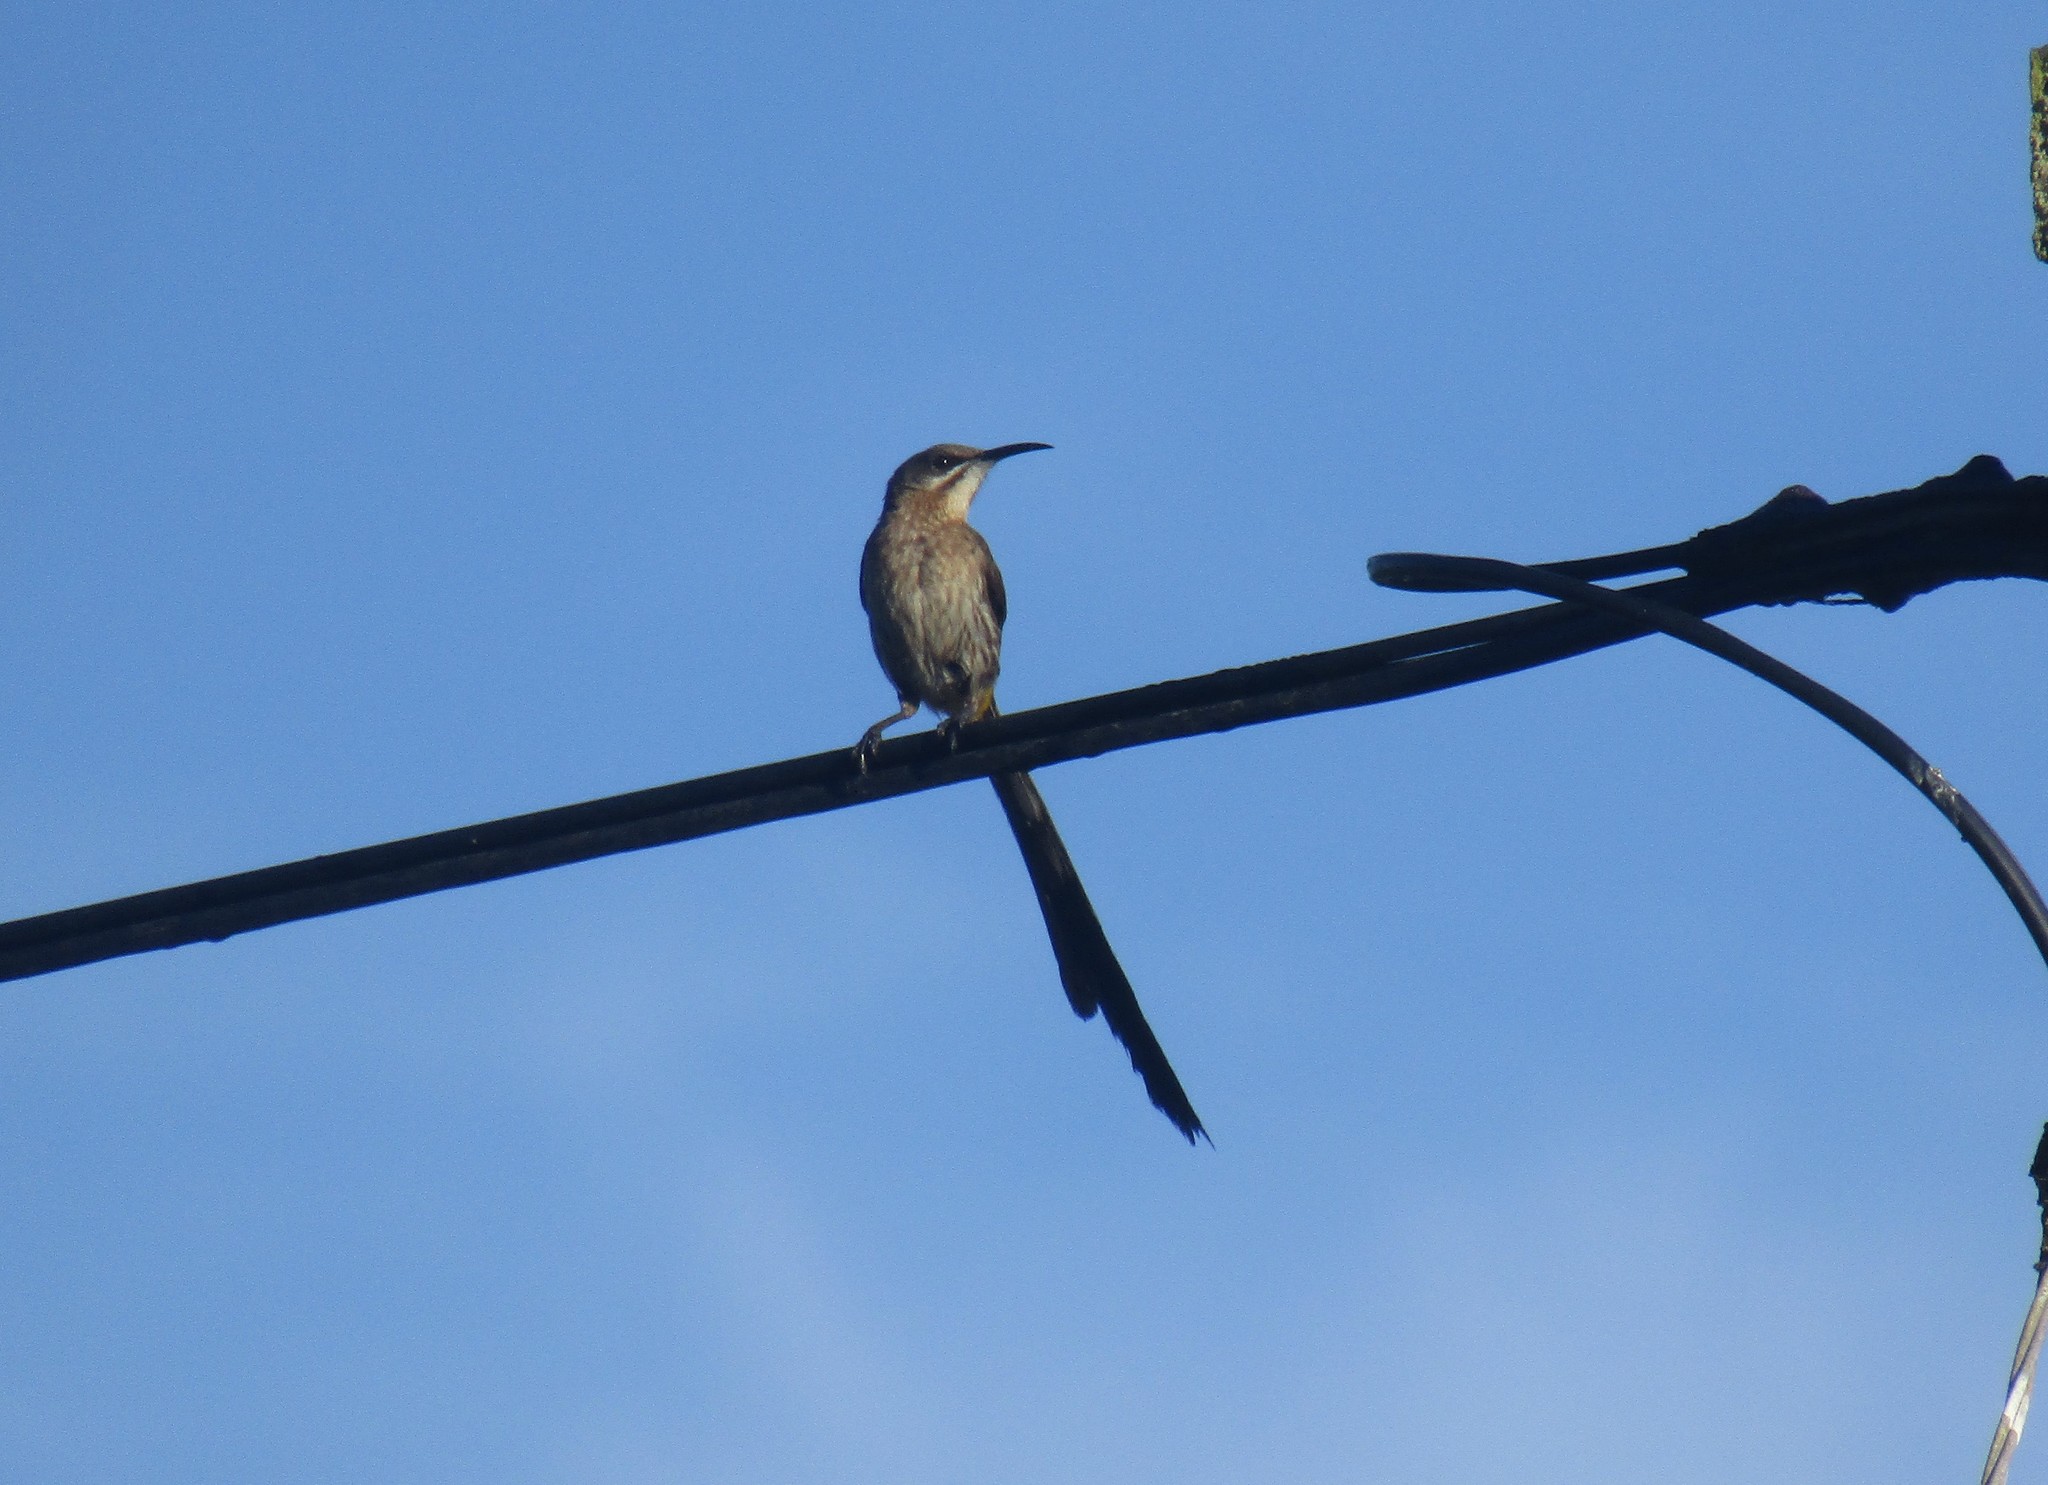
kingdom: Animalia
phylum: Chordata
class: Aves
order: Passeriformes
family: Promeropidae
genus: Promerops
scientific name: Promerops cafer
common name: Cape sugarbird
